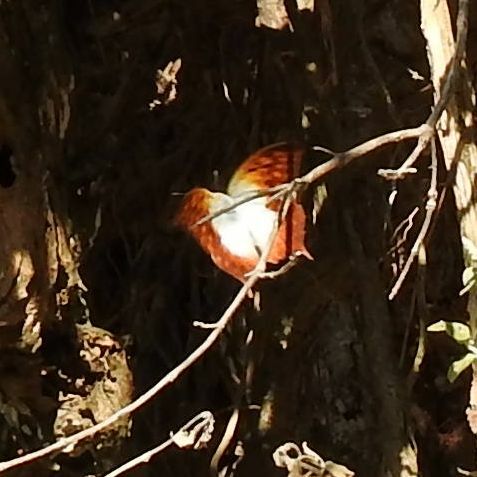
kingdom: Animalia
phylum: Arthropoda
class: Insecta
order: Lepidoptera
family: Nymphalidae
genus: Charaxes
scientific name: Charaxes varanes
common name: Common pearl charaxes
